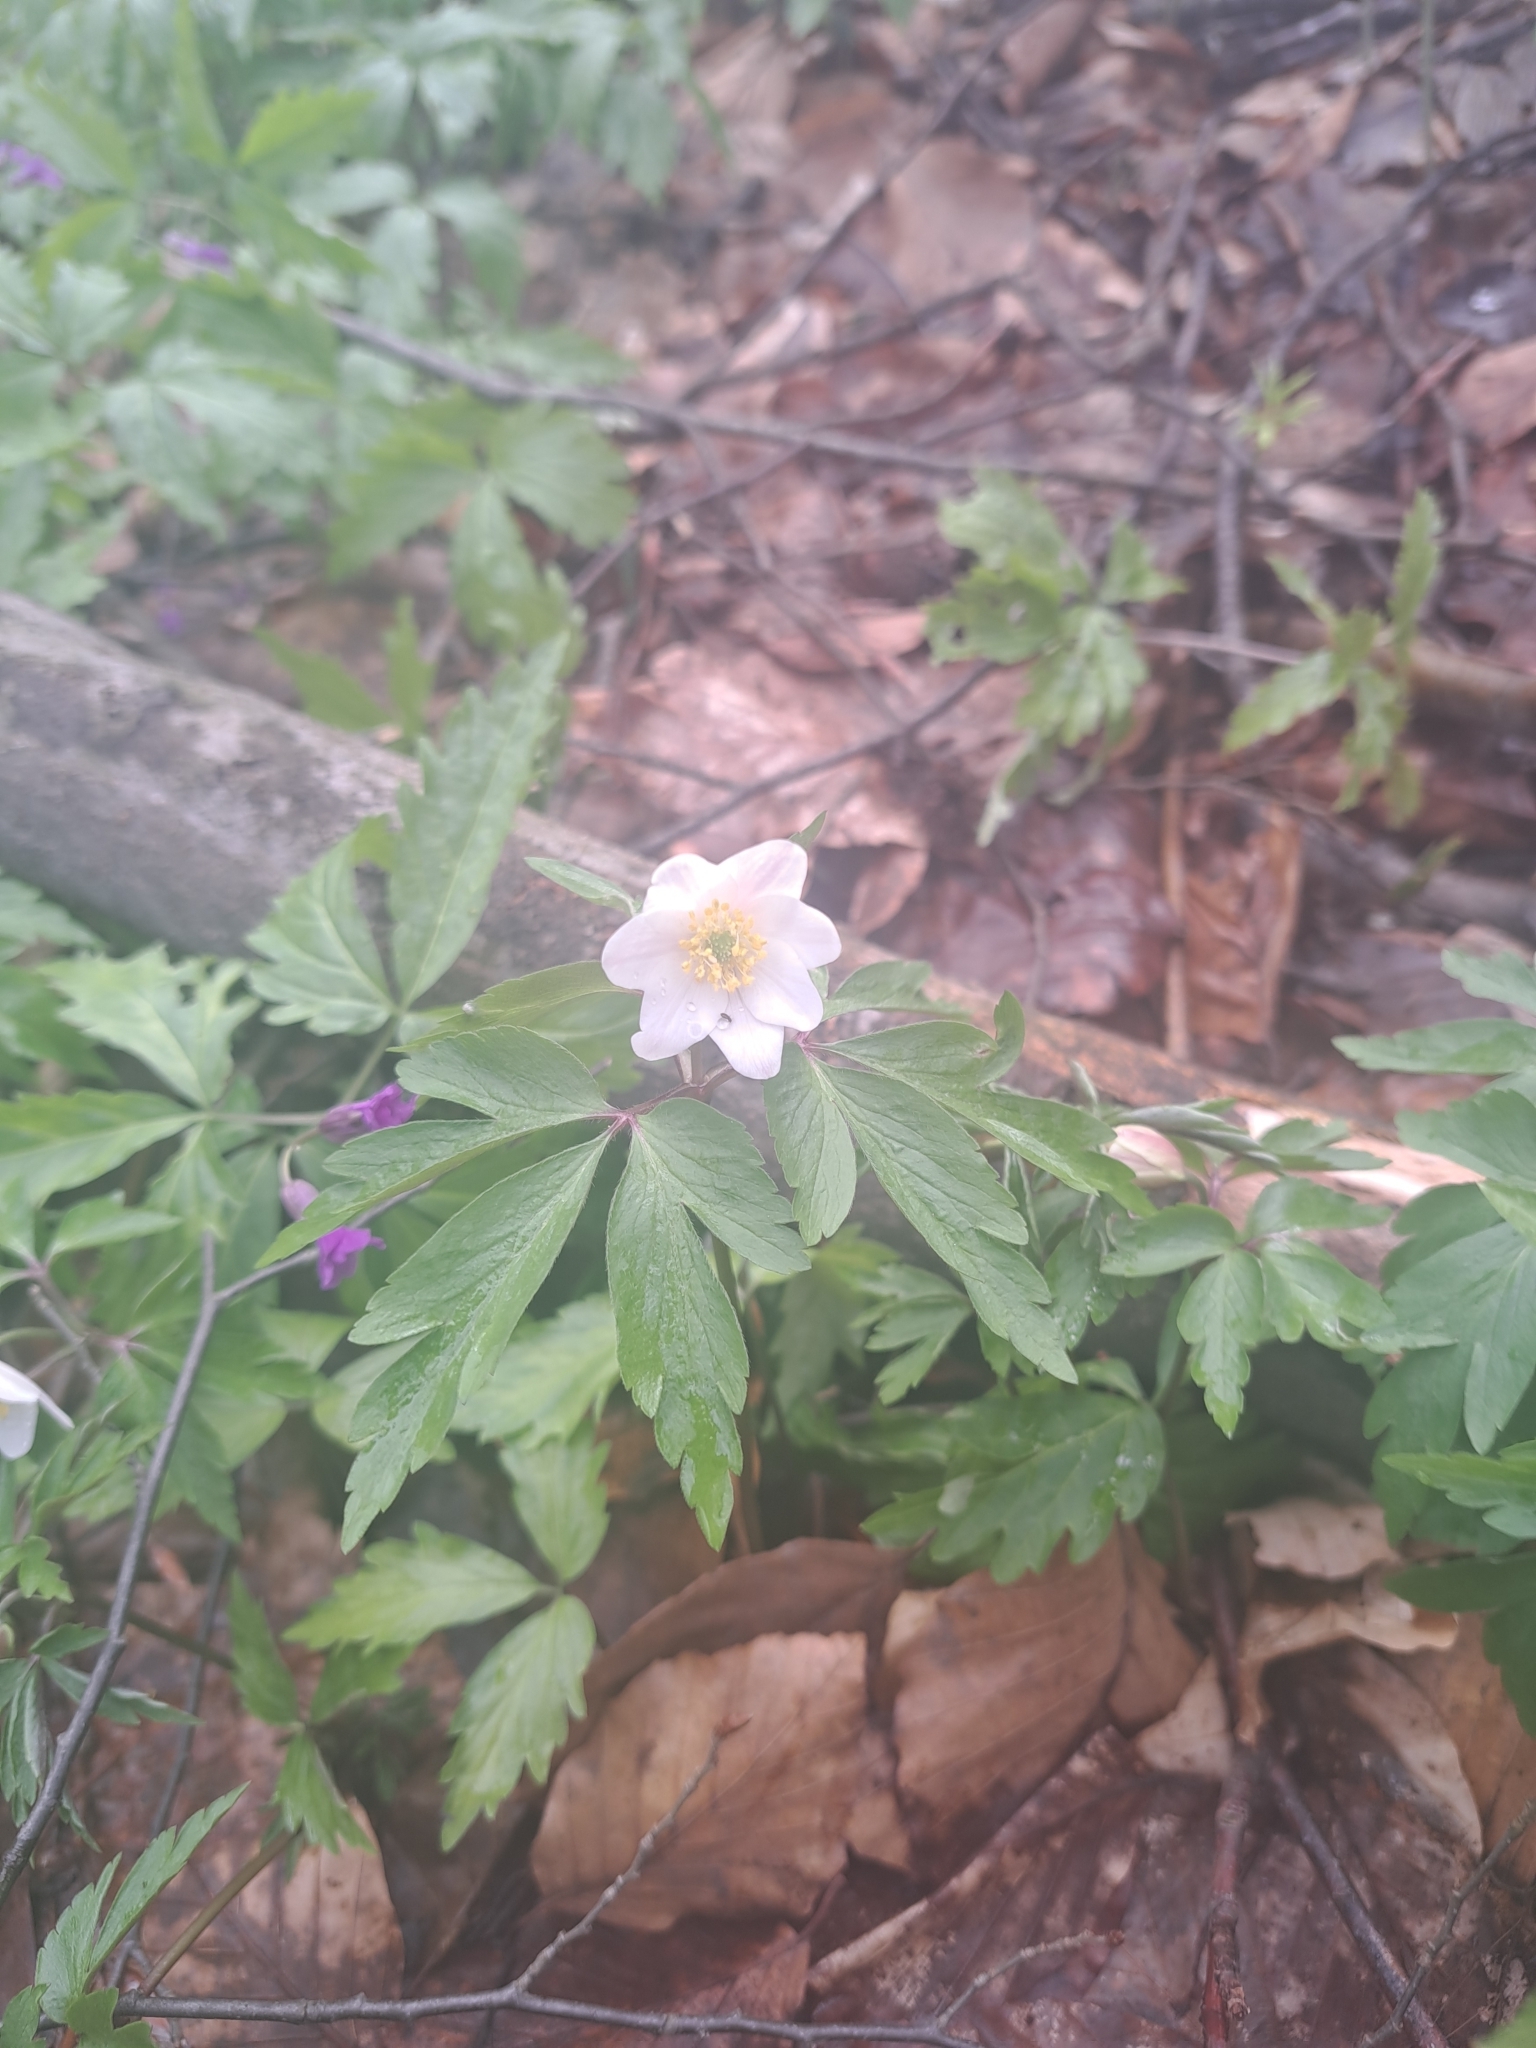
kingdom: Plantae
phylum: Tracheophyta
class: Magnoliopsida
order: Ranunculales
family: Ranunculaceae
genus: Anemone
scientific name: Anemone nemorosa
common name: Wood anemone
